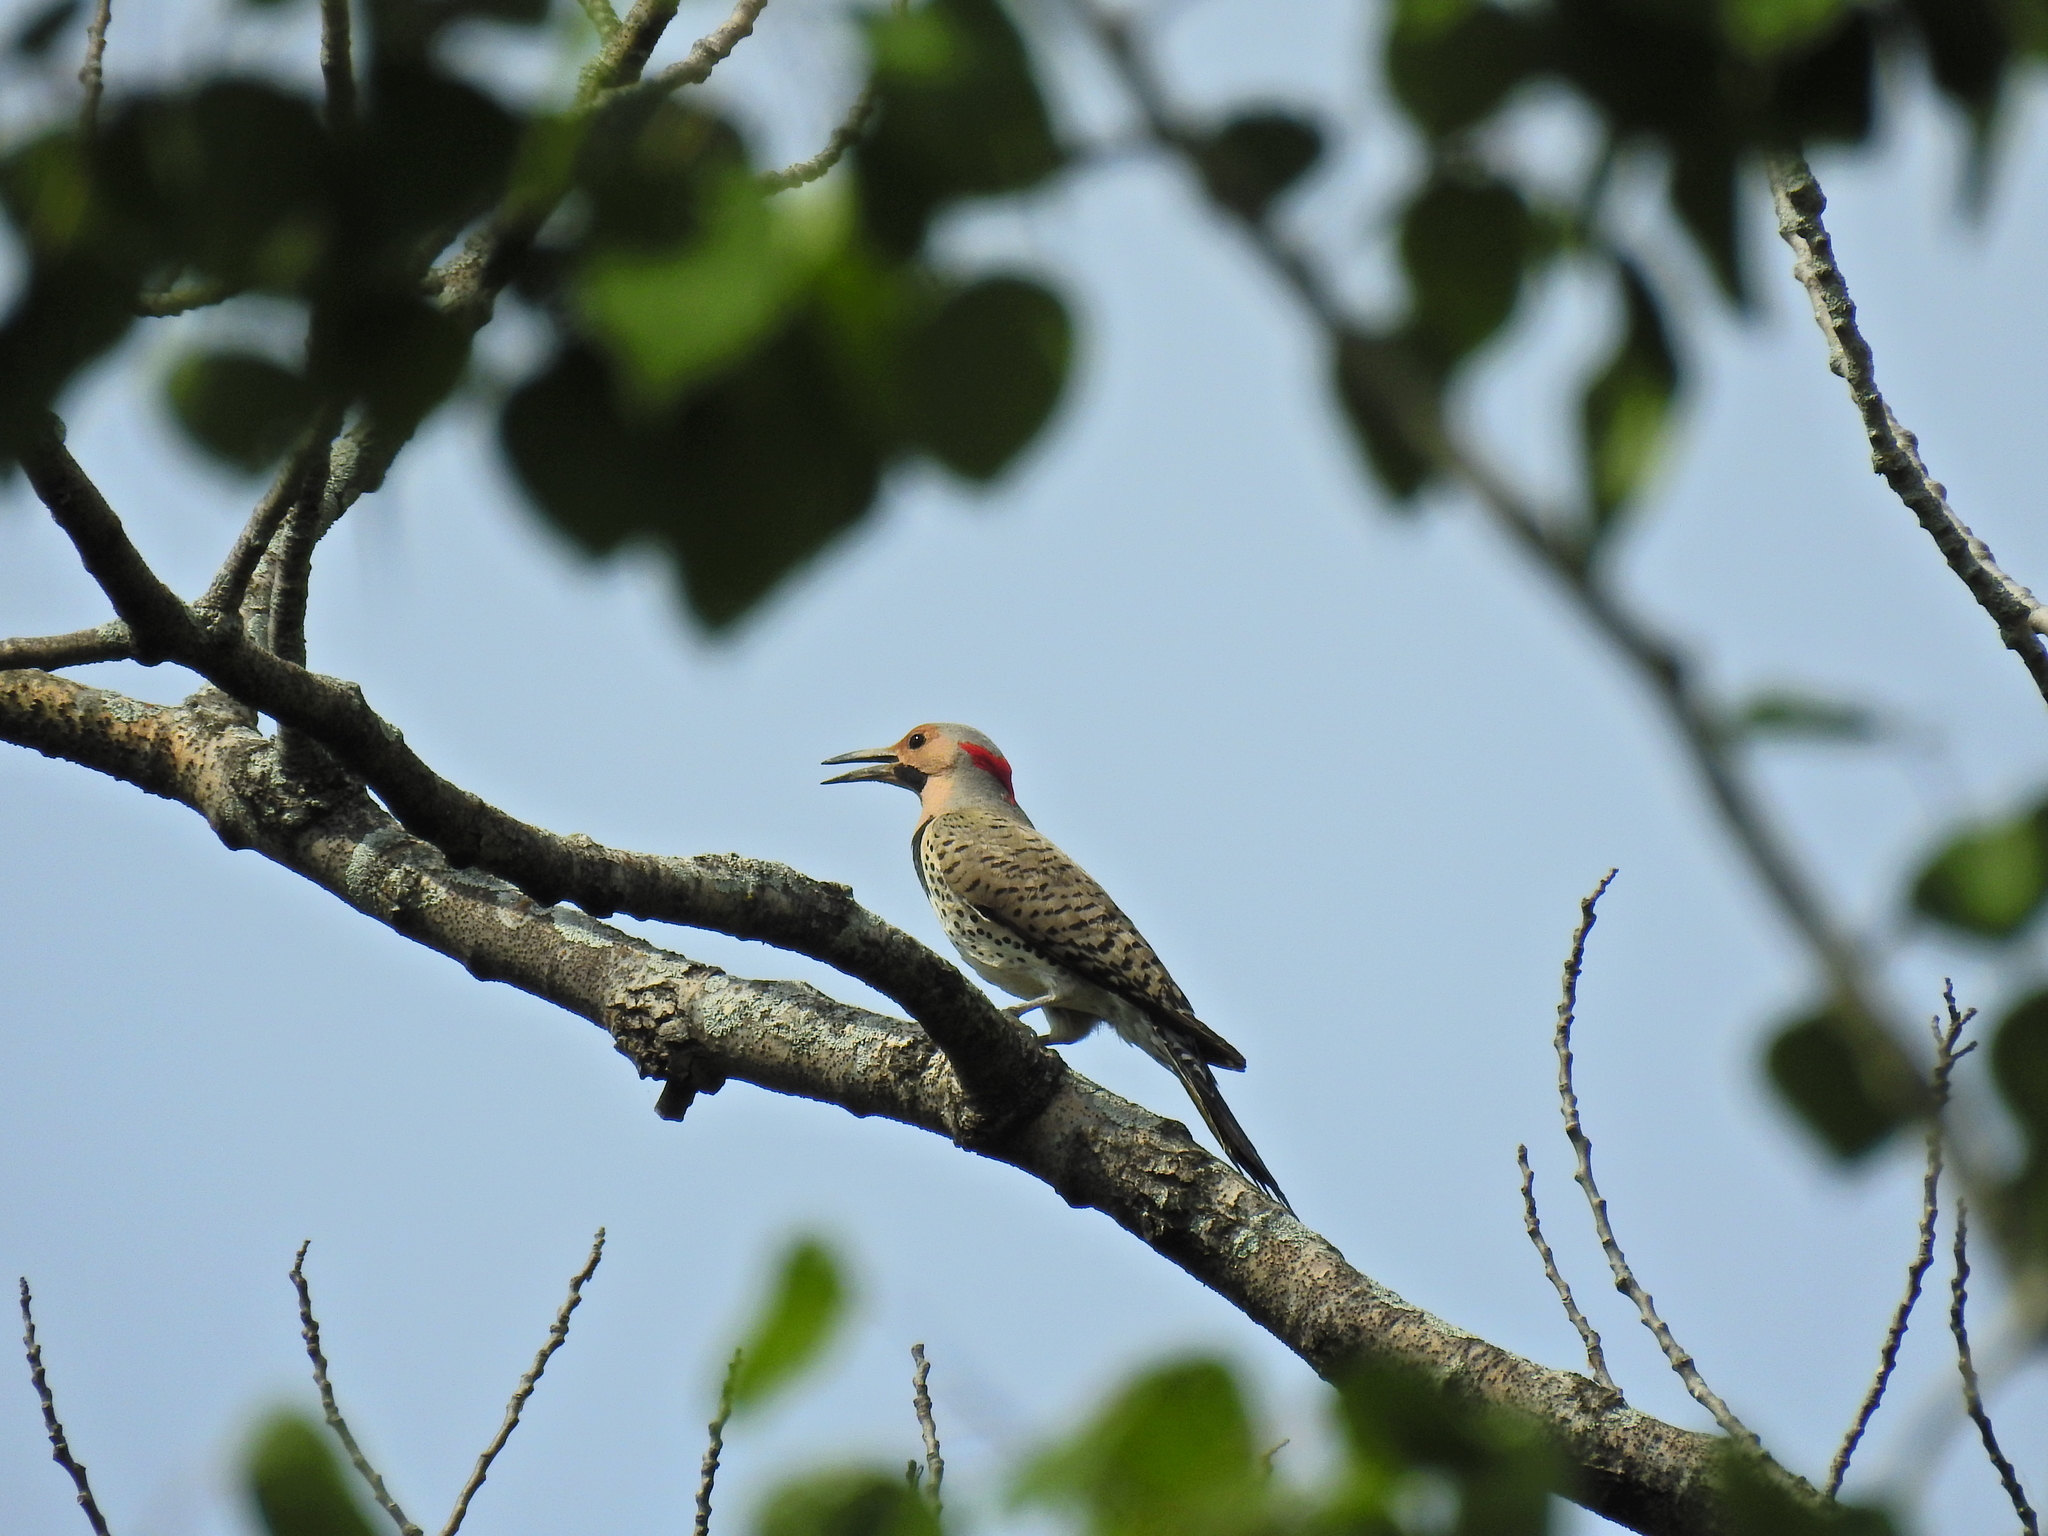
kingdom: Animalia
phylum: Chordata
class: Aves
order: Piciformes
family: Picidae
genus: Colaptes
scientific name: Colaptes auratus
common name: Northern flicker
